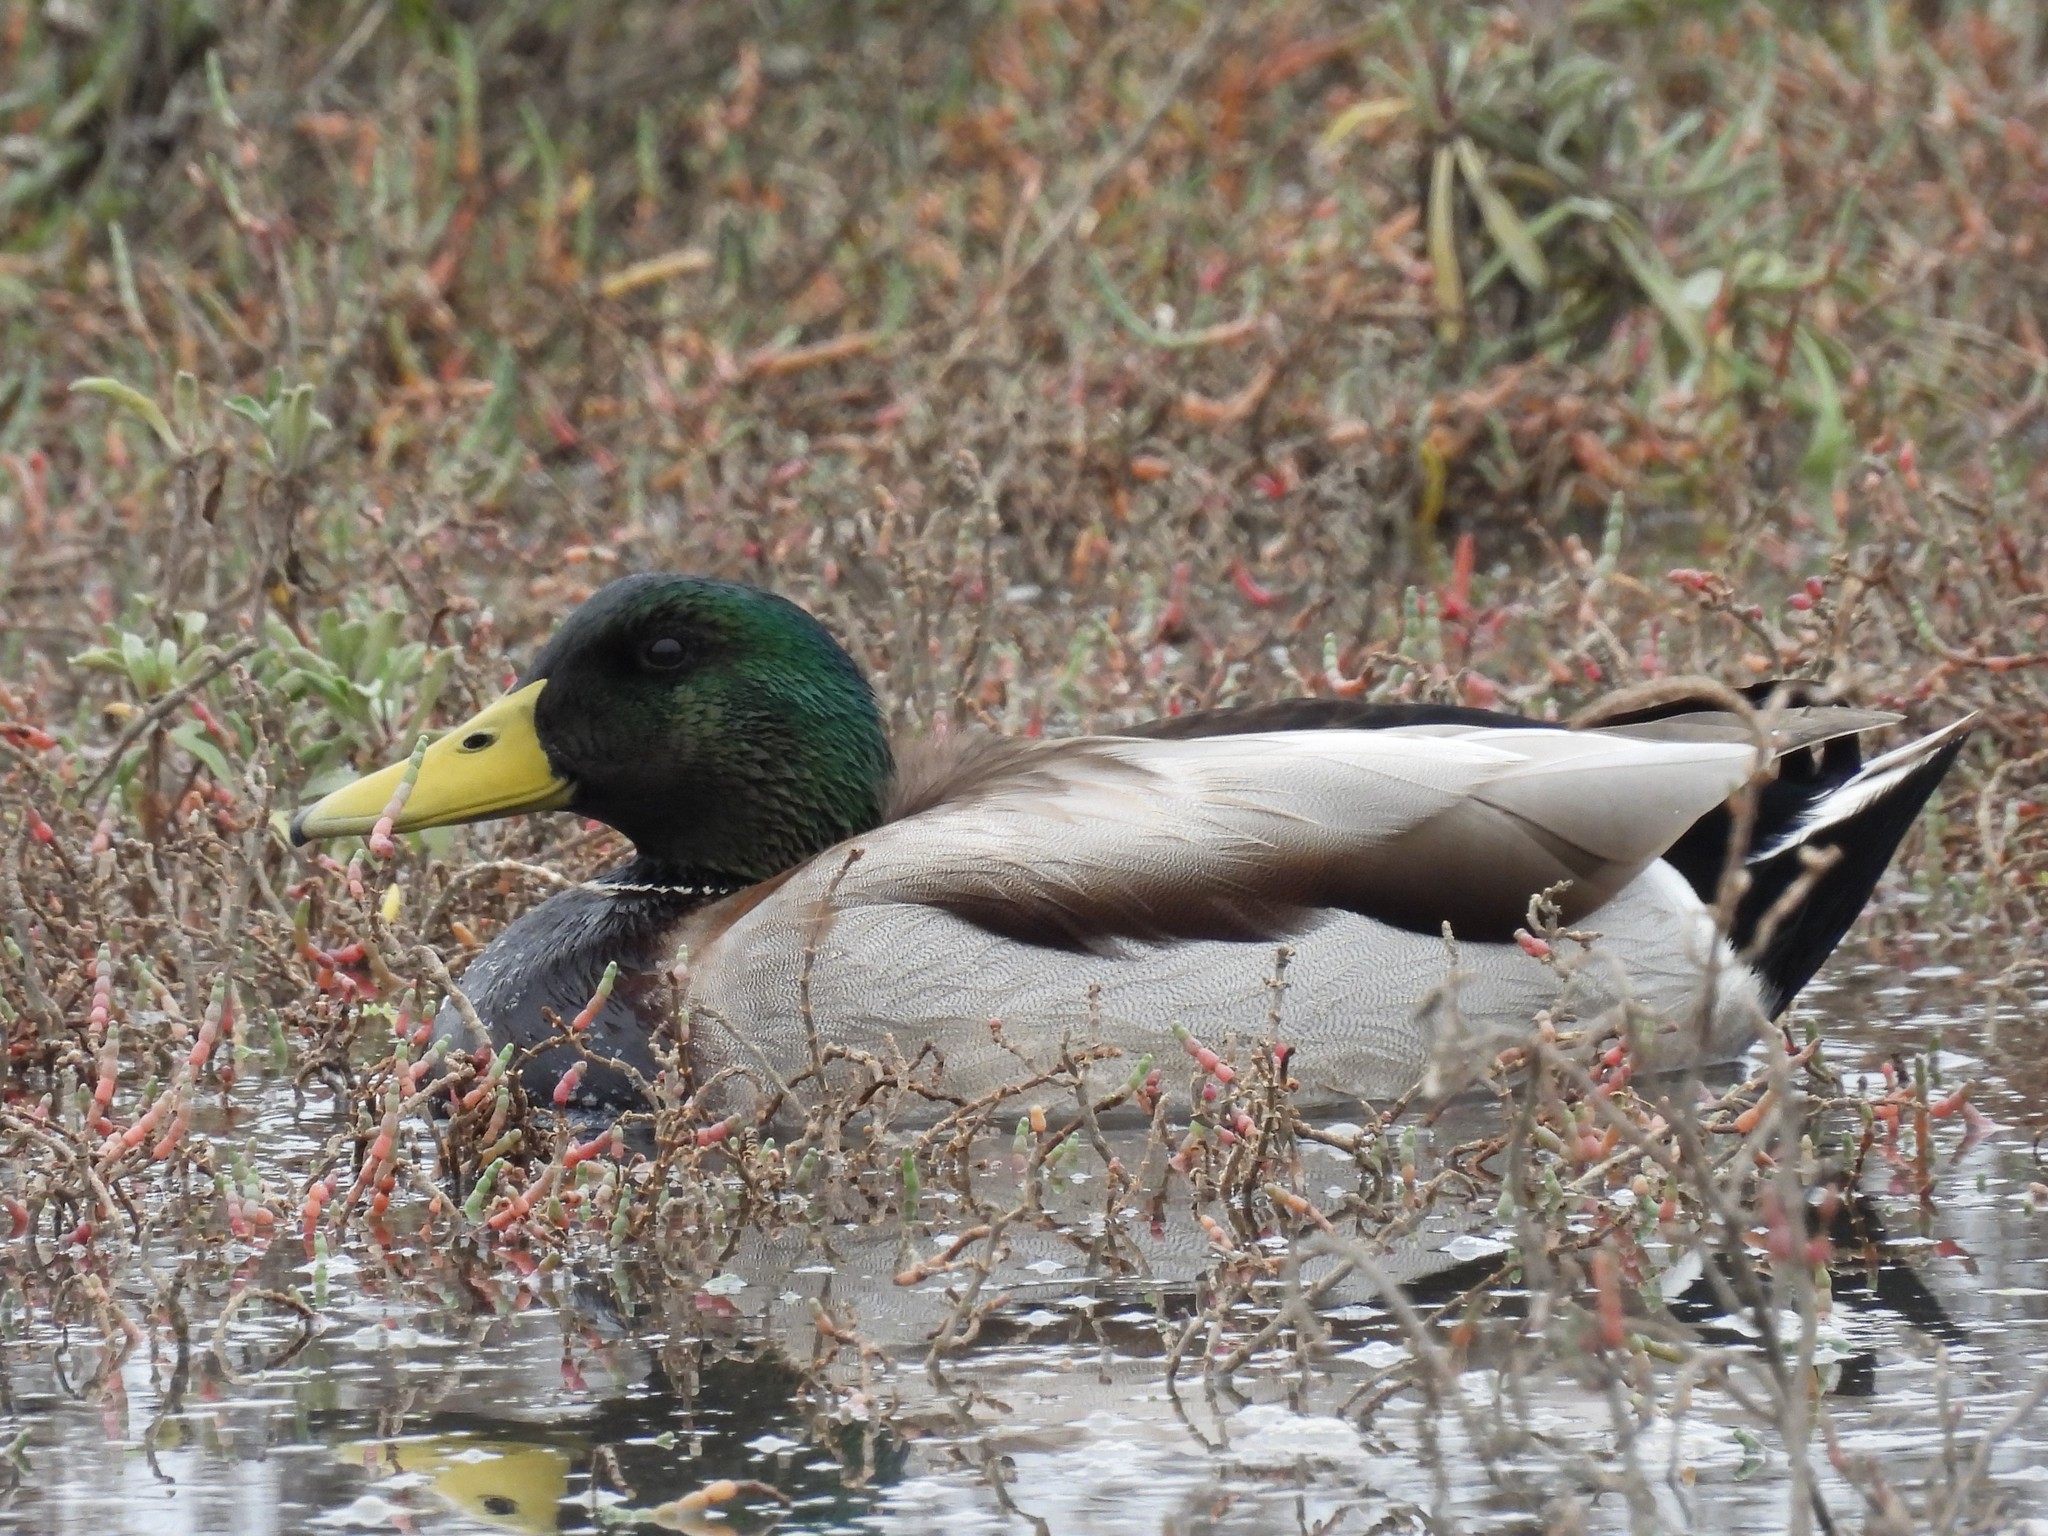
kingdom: Animalia
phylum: Chordata
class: Aves
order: Anseriformes
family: Anatidae
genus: Anas
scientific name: Anas platyrhynchos
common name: Mallard
